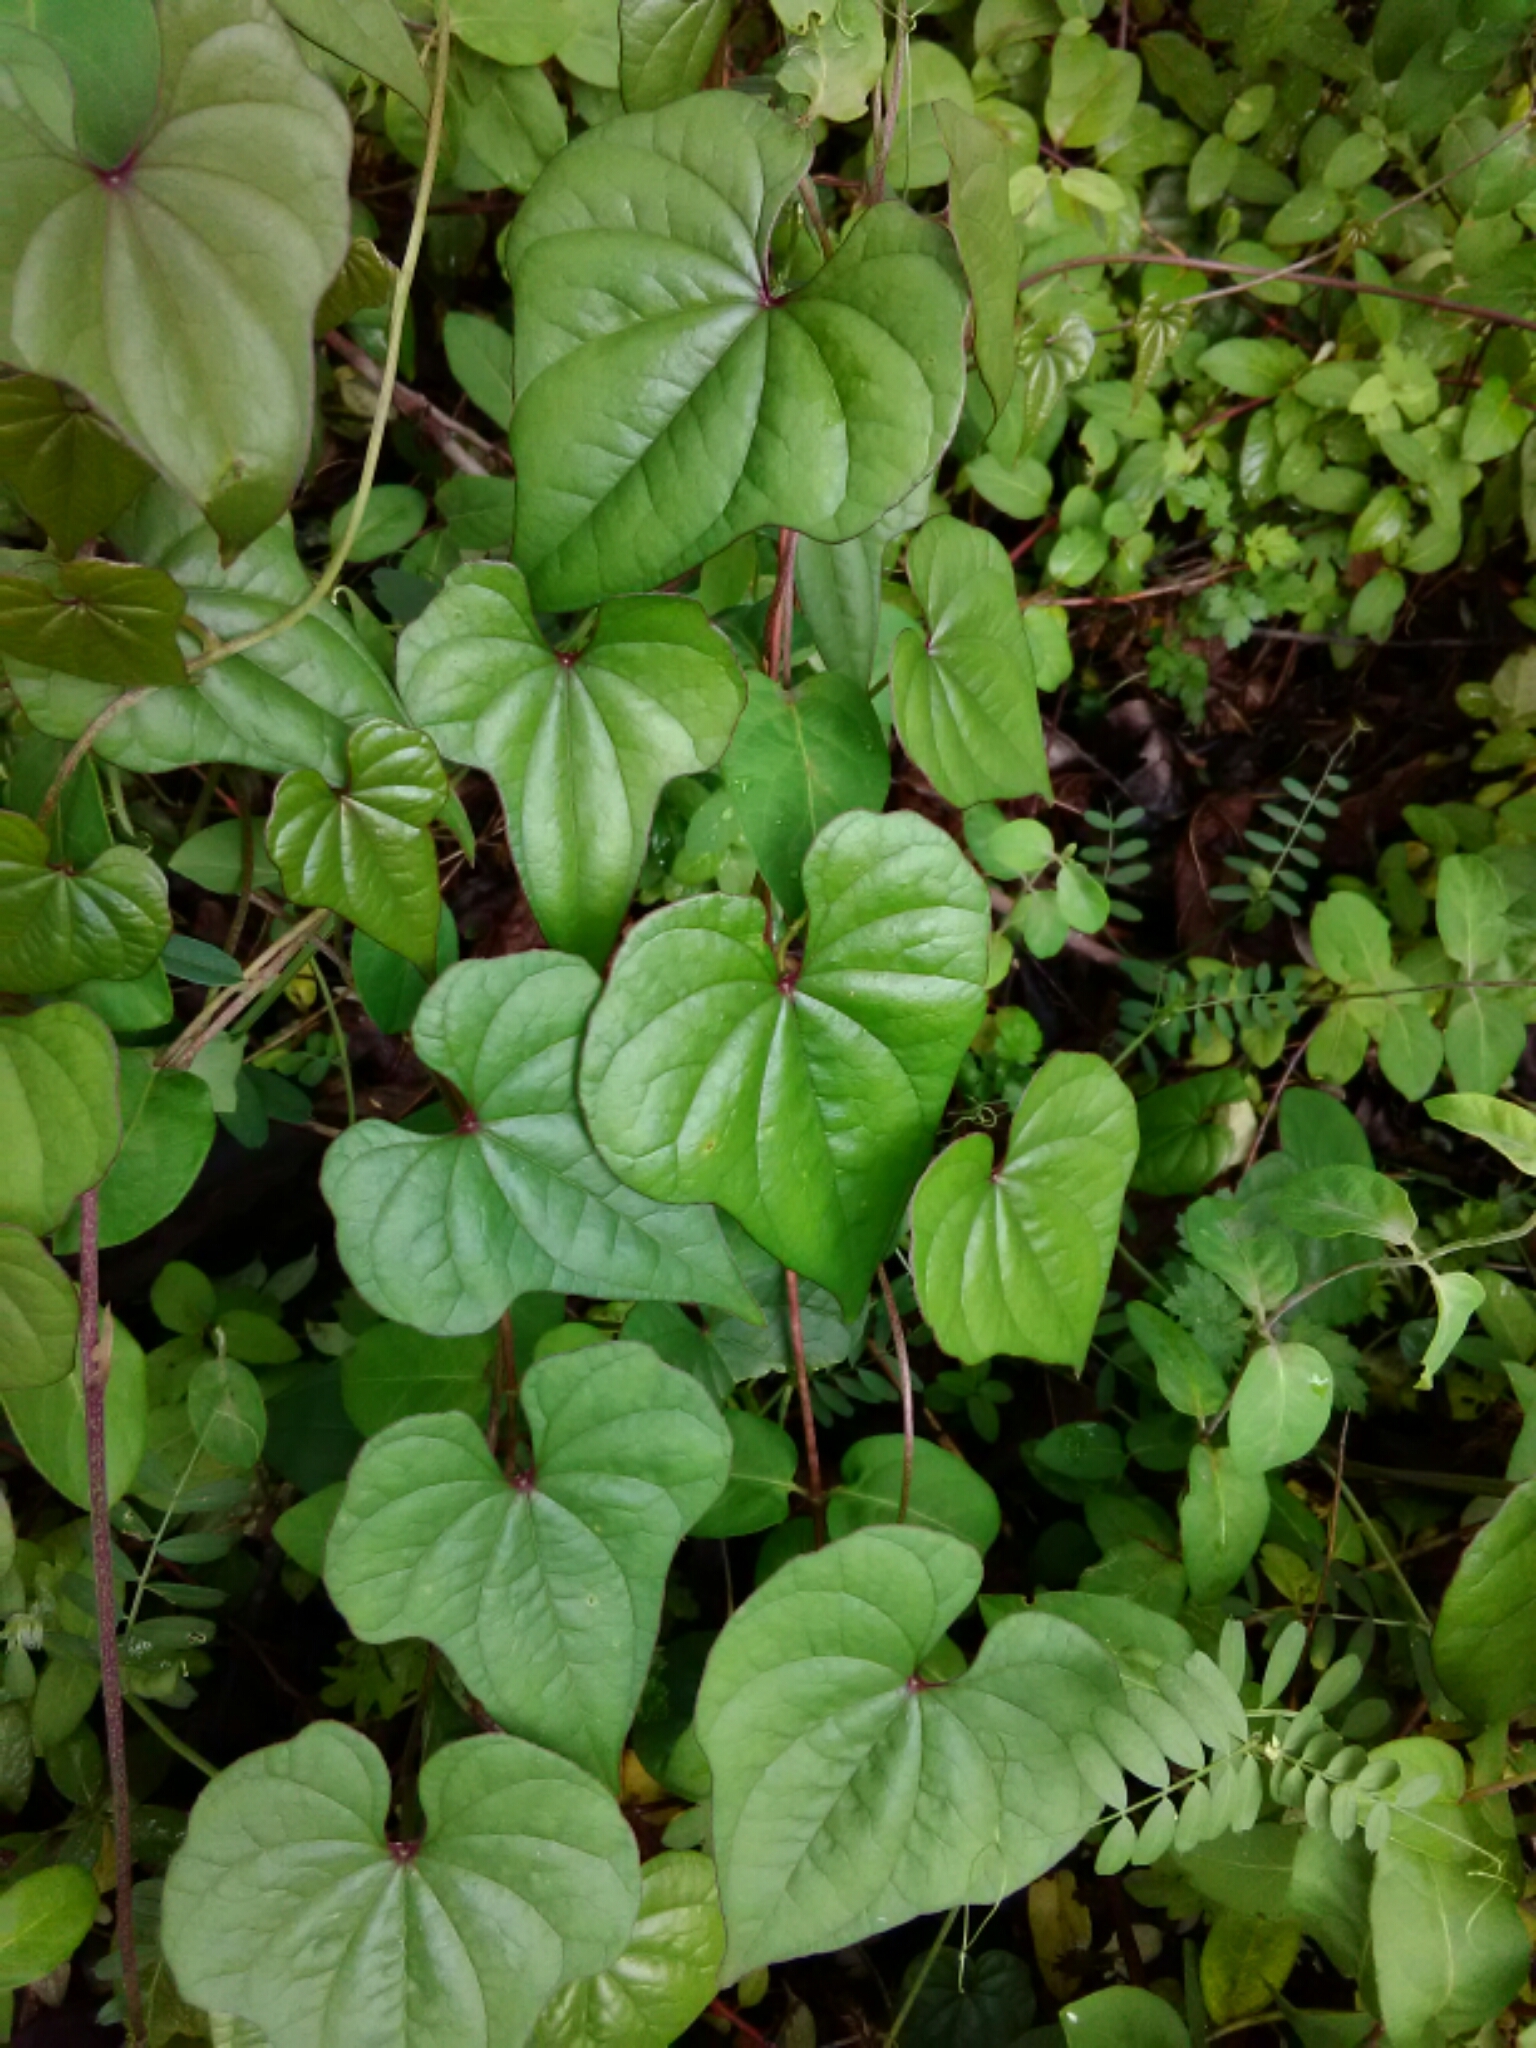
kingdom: Plantae
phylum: Tracheophyta
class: Liliopsida
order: Dioscoreales
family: Dioscoreaceae
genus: Dioscorea
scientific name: Dioscorea polystachya
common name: Chinese yam
